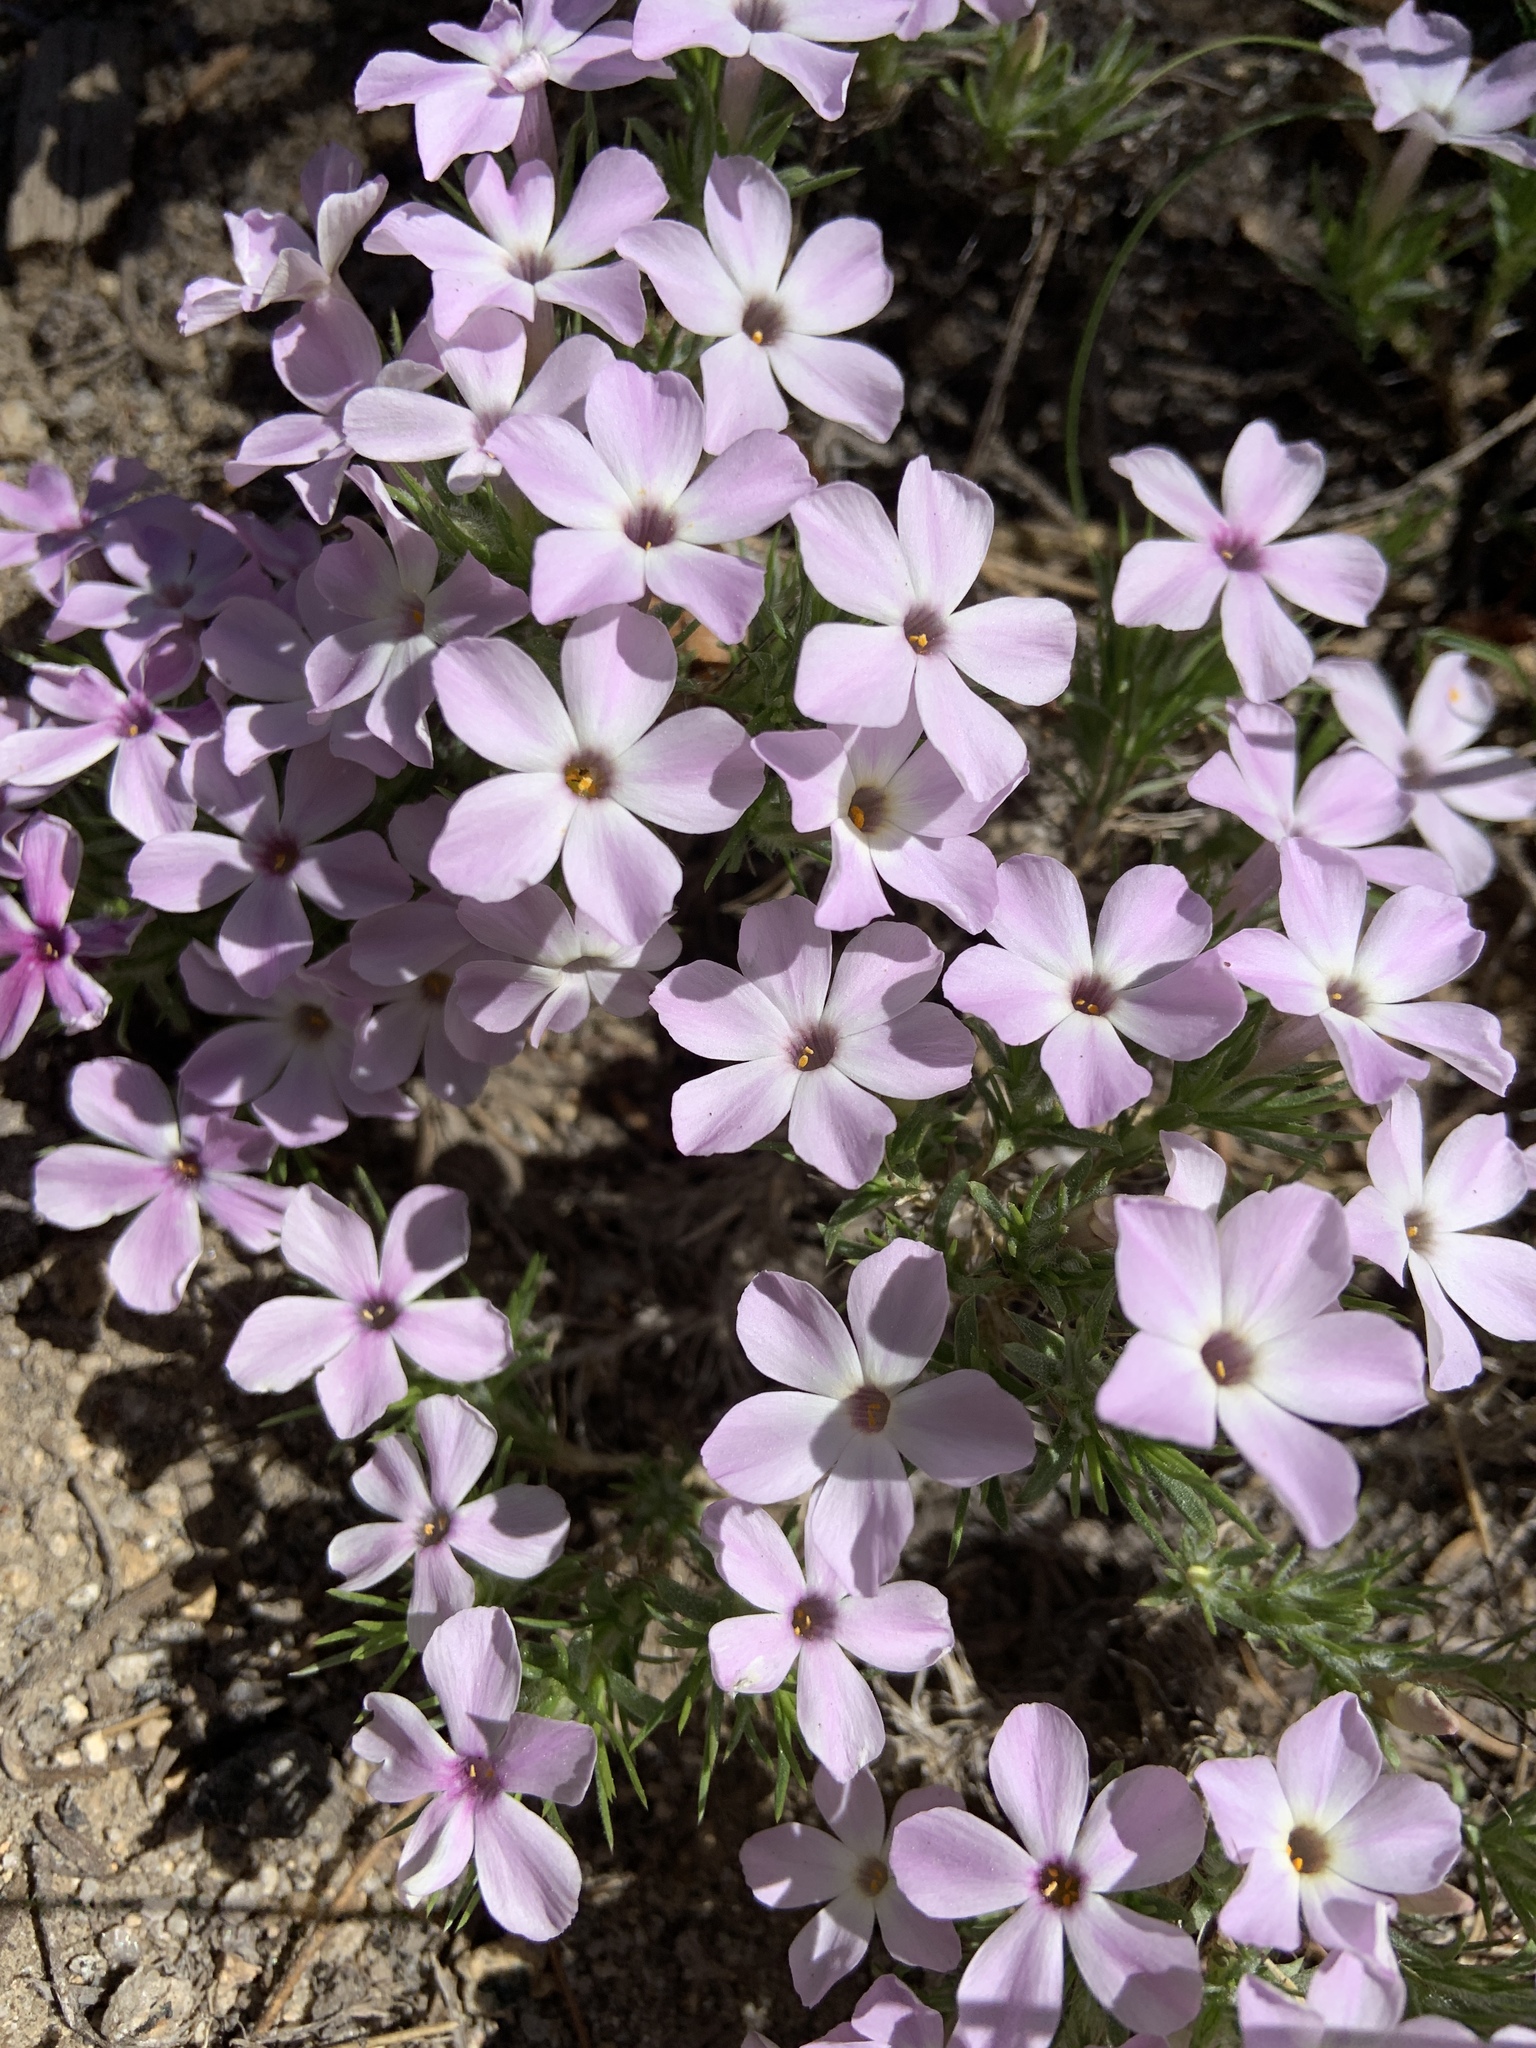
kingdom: Plantae
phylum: Tracheophyta
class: Magnoliopsida
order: Ericales
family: Polemoniaceae
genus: Phlox
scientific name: Phlox diffusa
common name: Mat phlox
